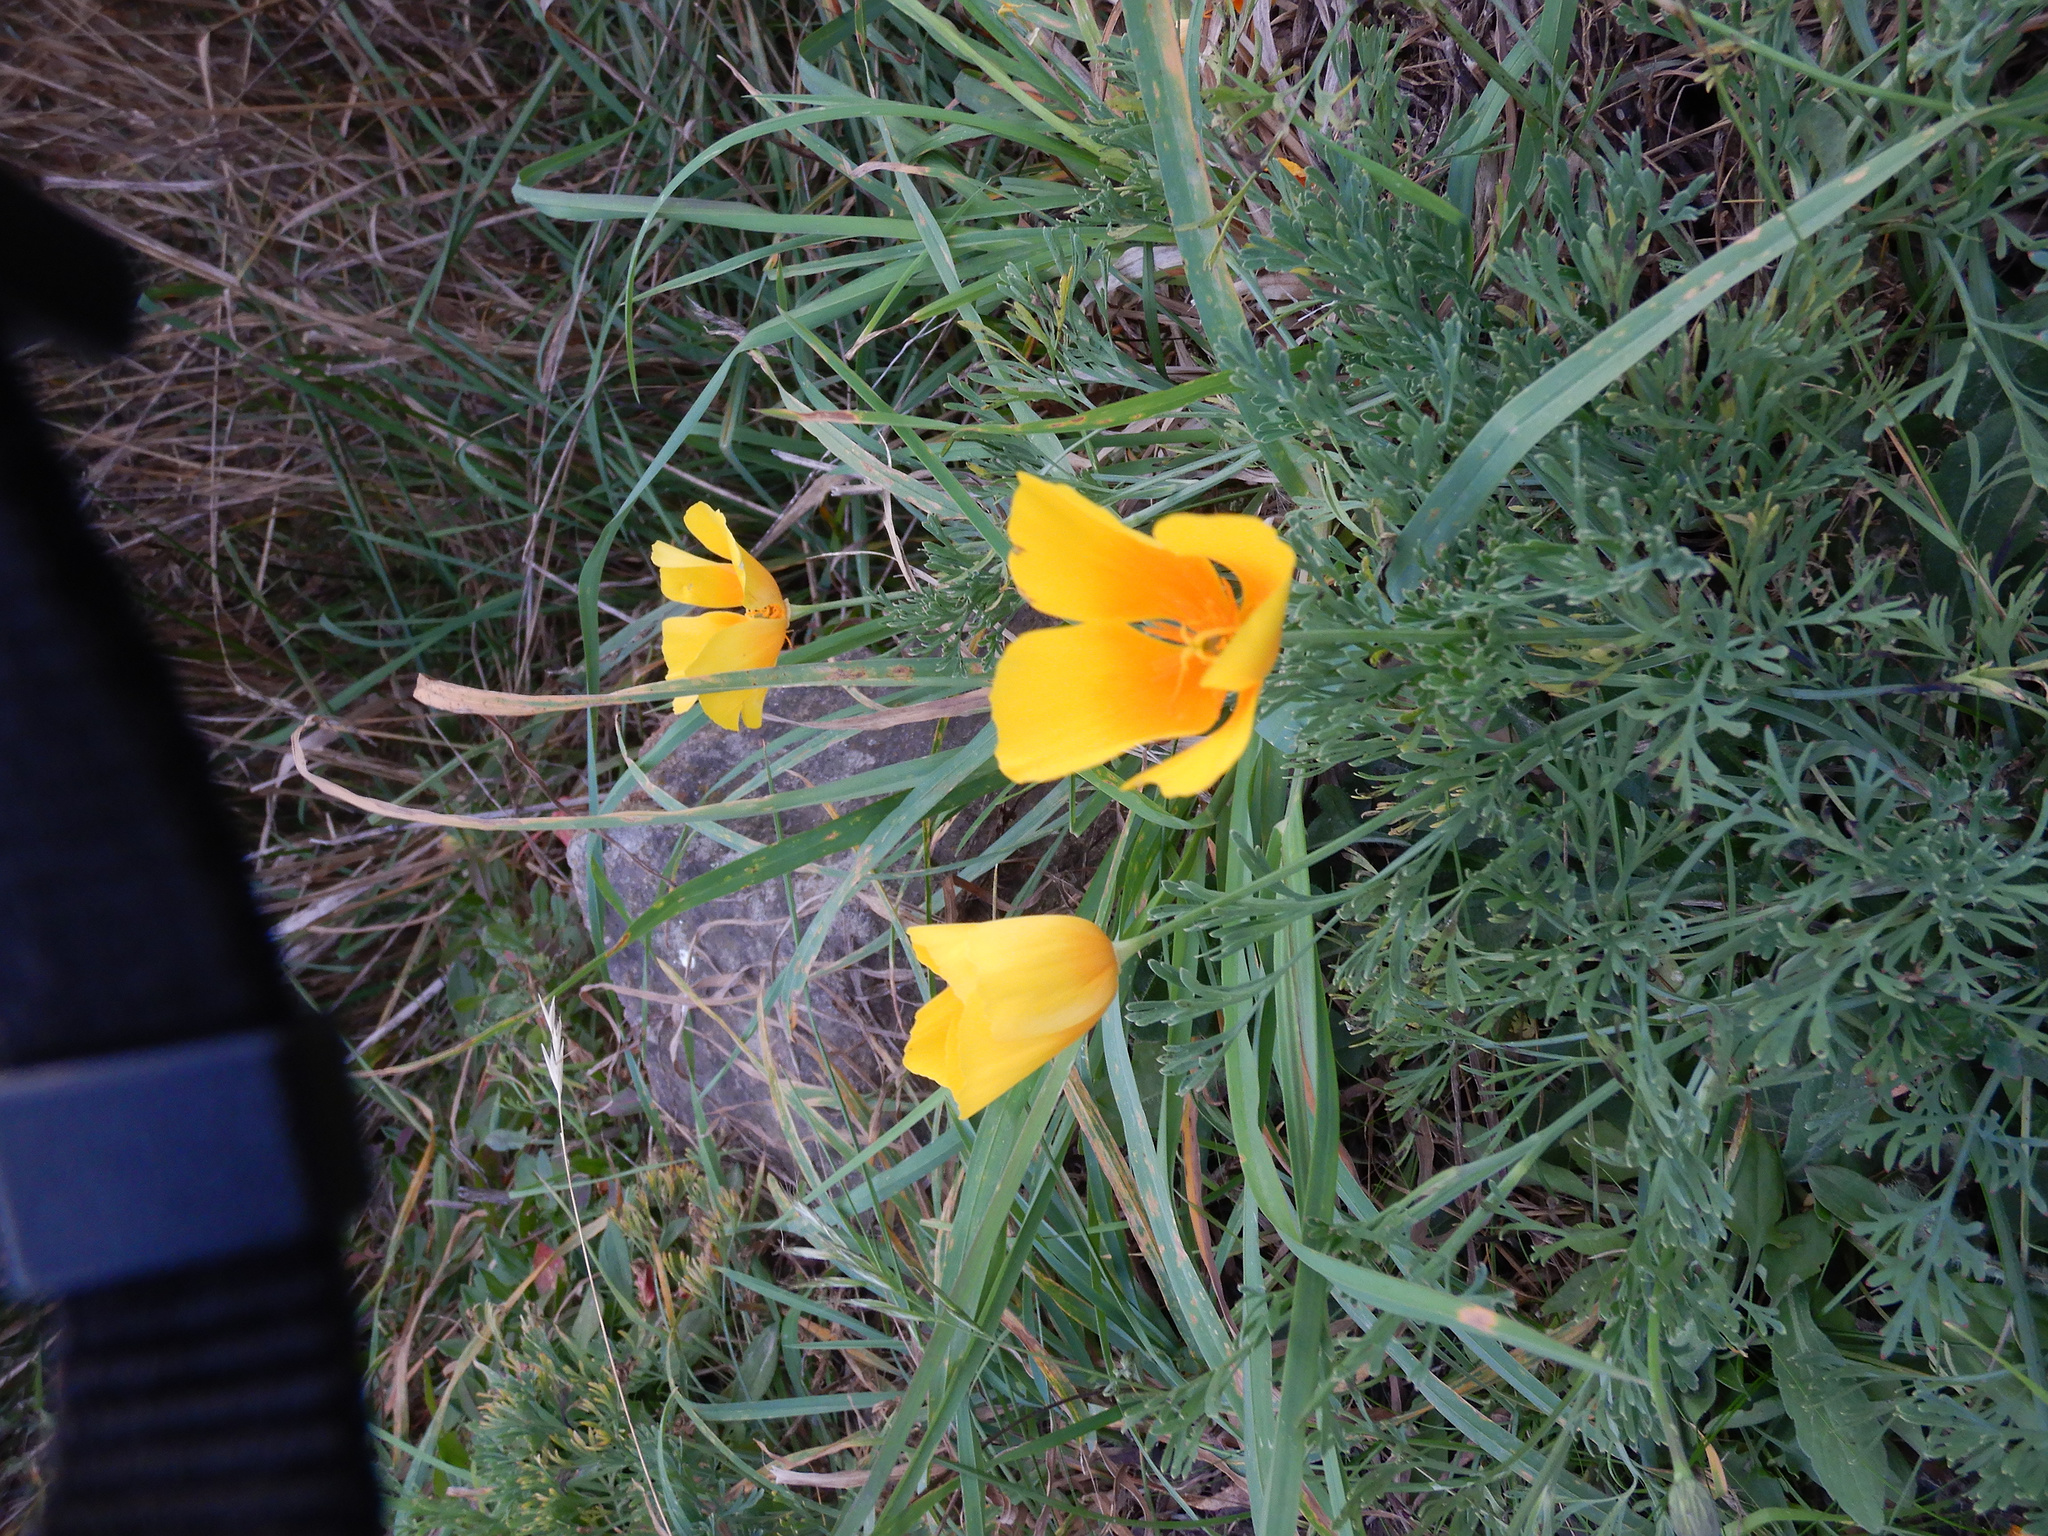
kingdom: Plantae
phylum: Tracheophyta
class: Magnoliopsida
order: Ranunculales
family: Papaveraceae
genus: Eschscholzia
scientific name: Eschscholzia californica
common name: California poppy
